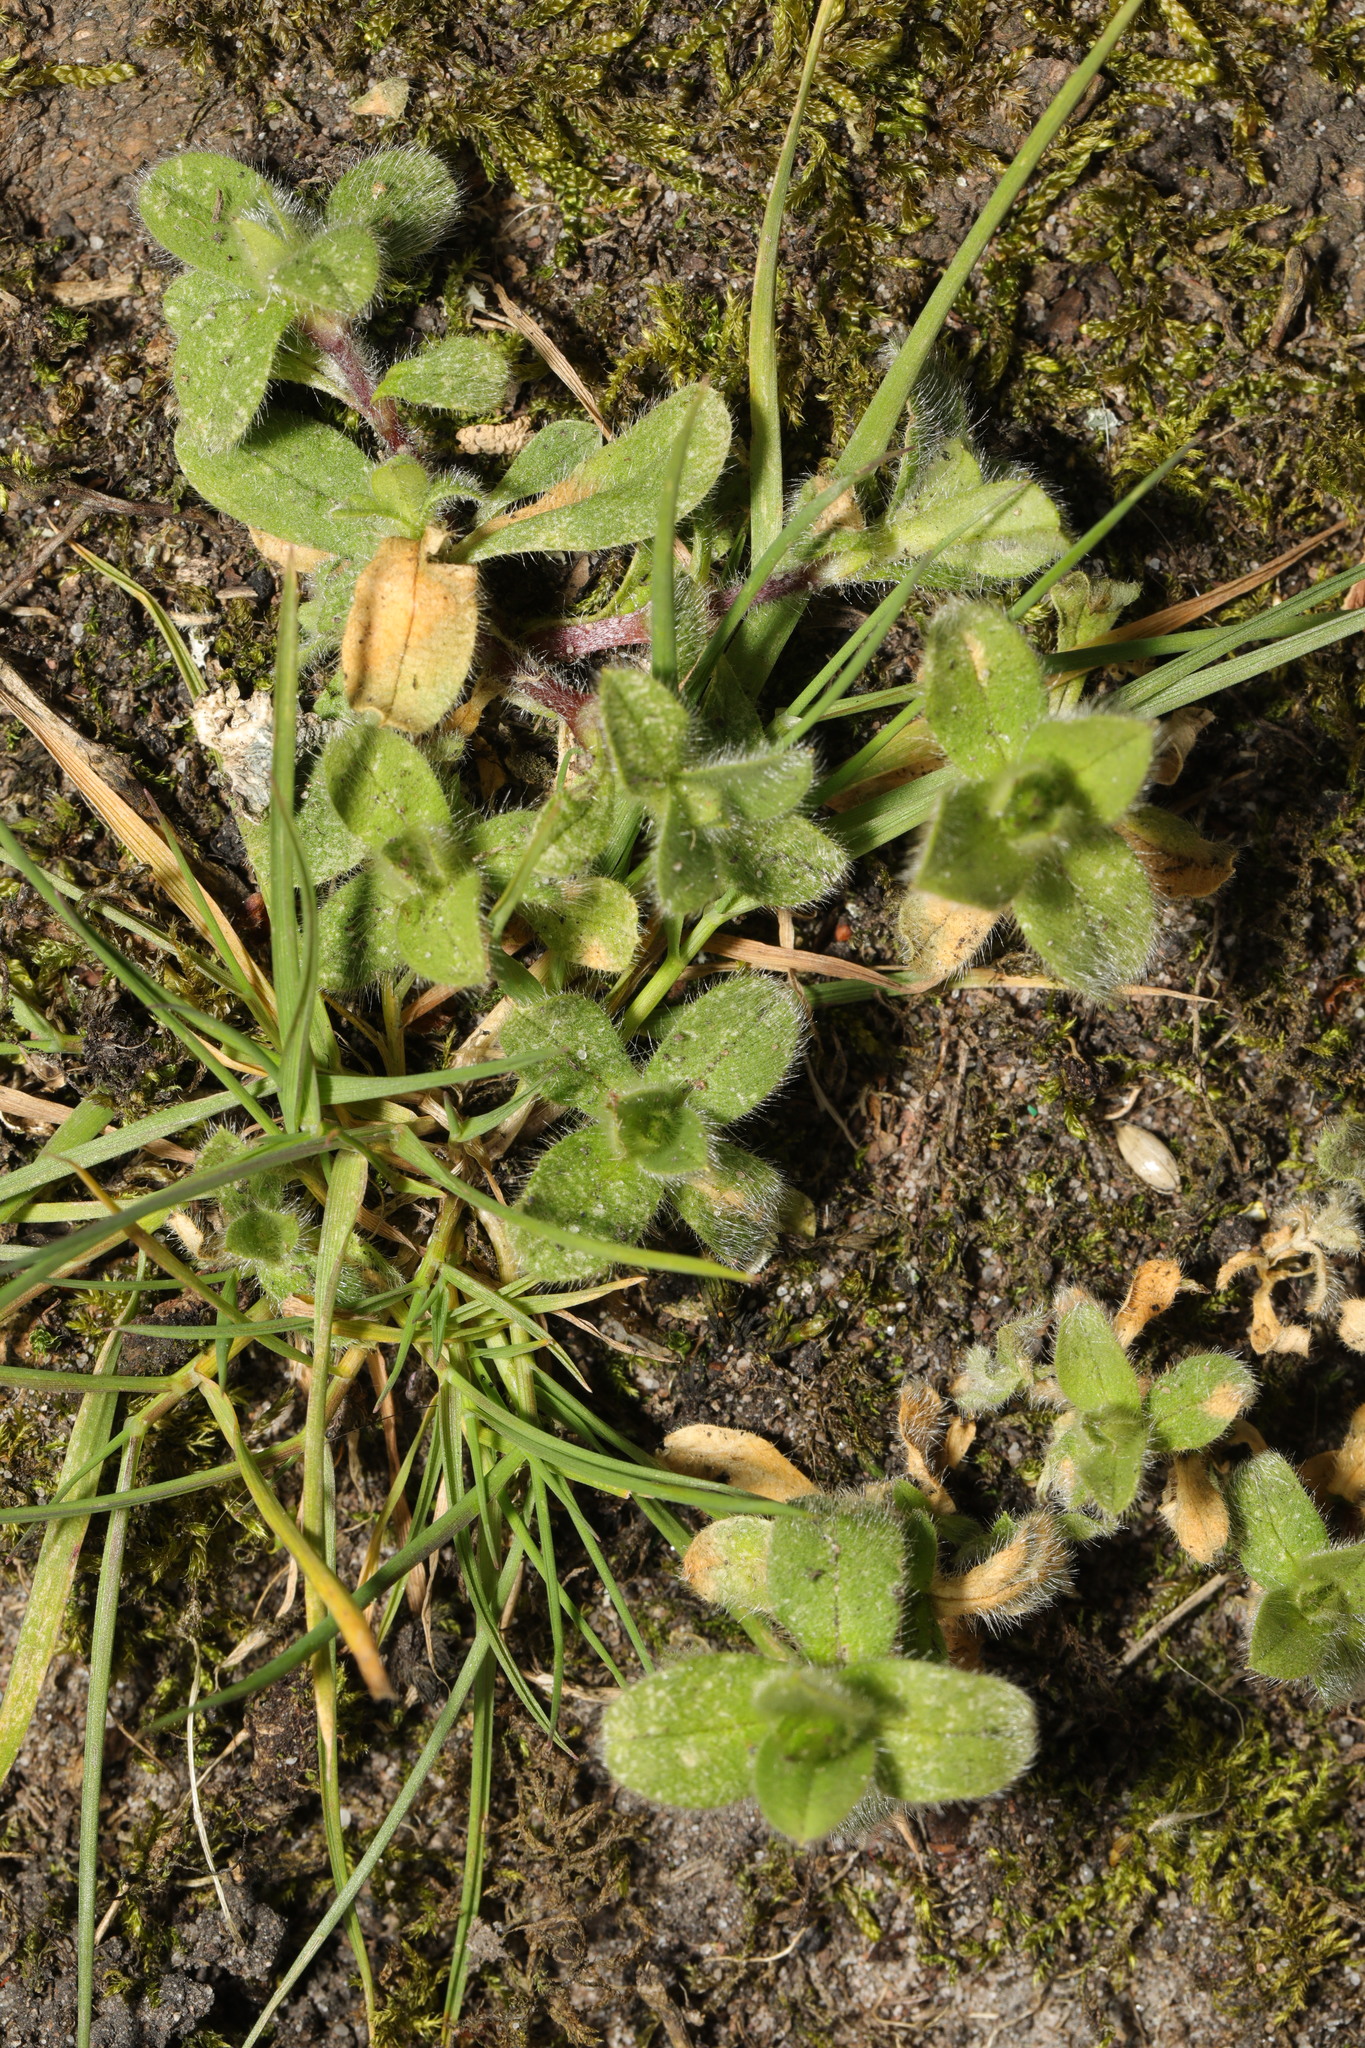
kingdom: Plantae
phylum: Tracheophyta
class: Magnoliopsida
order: Caryophyllales
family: Caryophyllaceae
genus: Cerastium
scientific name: Cerastium fontanum
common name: Common mouse-ear
